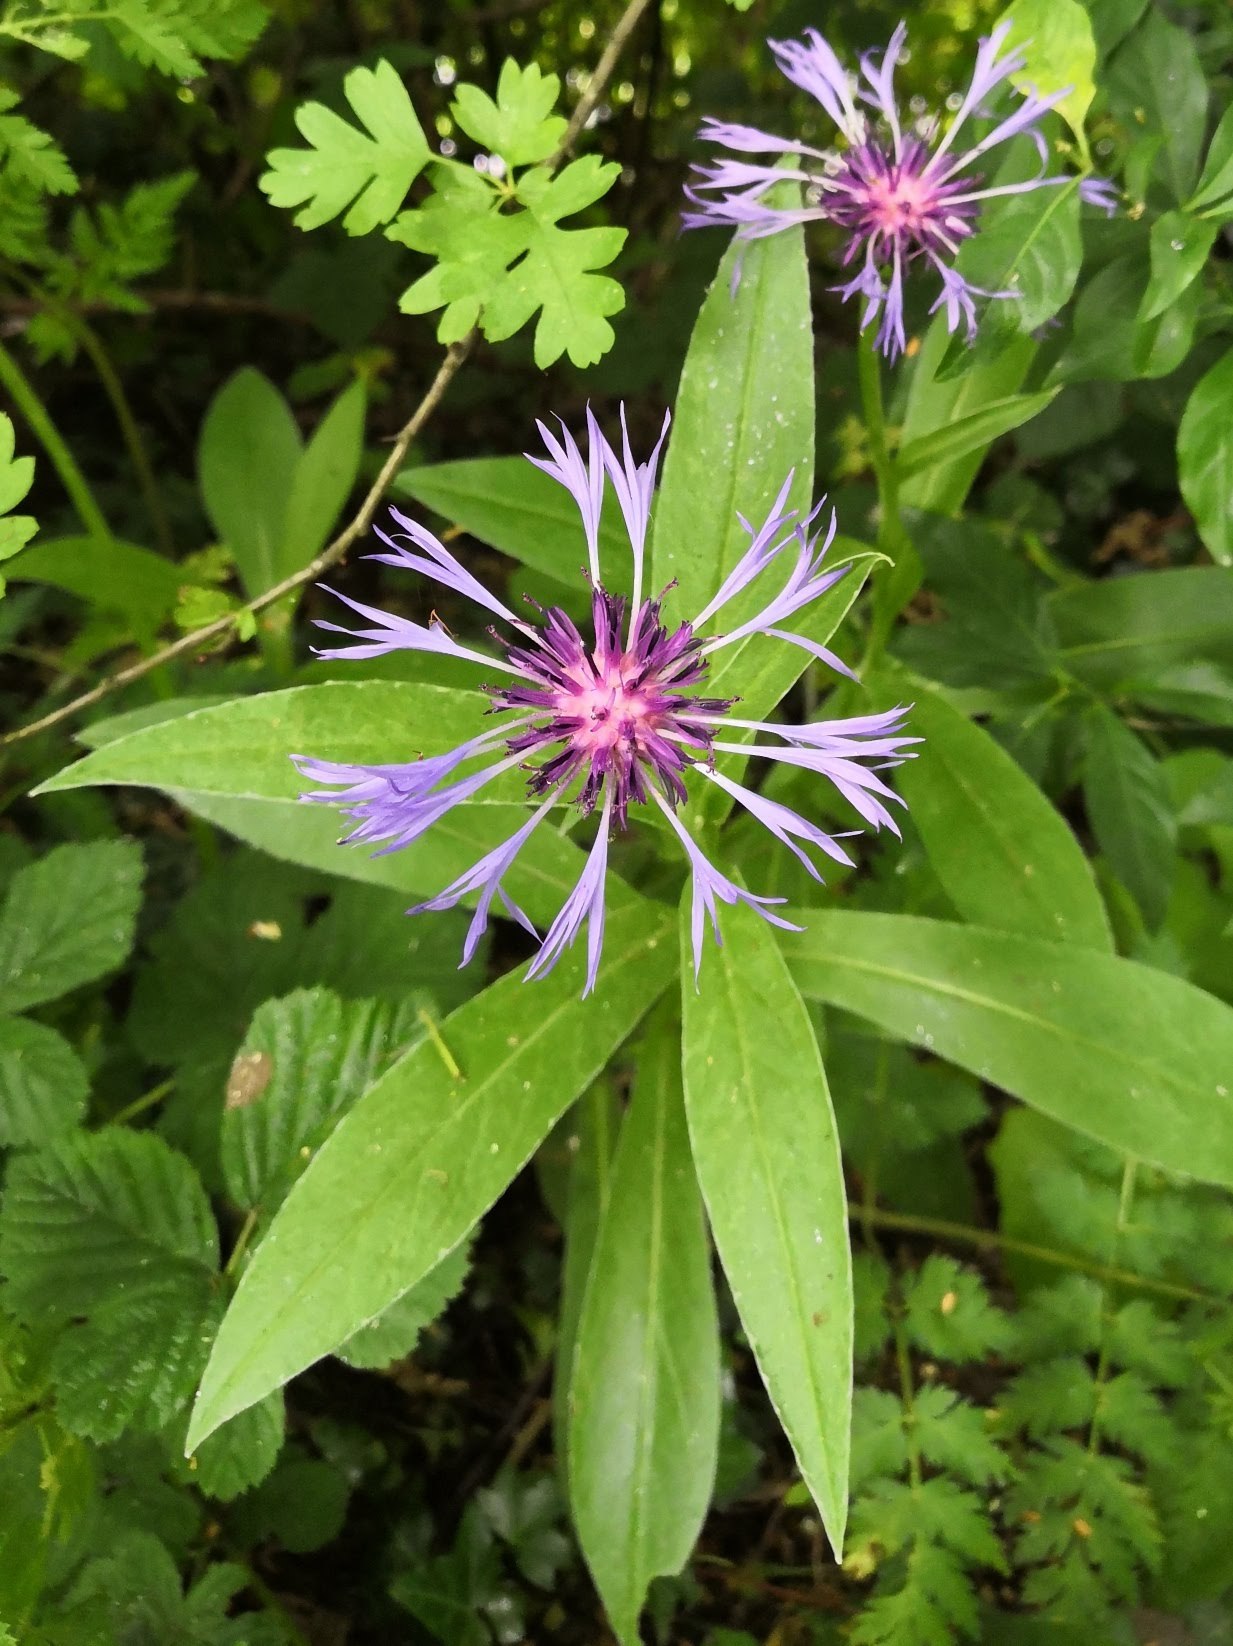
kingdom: Plantae
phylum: Tracheophyta
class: Magnoliopsida
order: Asterales
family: Asteraceae
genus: Centaurea
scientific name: Centaurea montana
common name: Perennial cornflower
